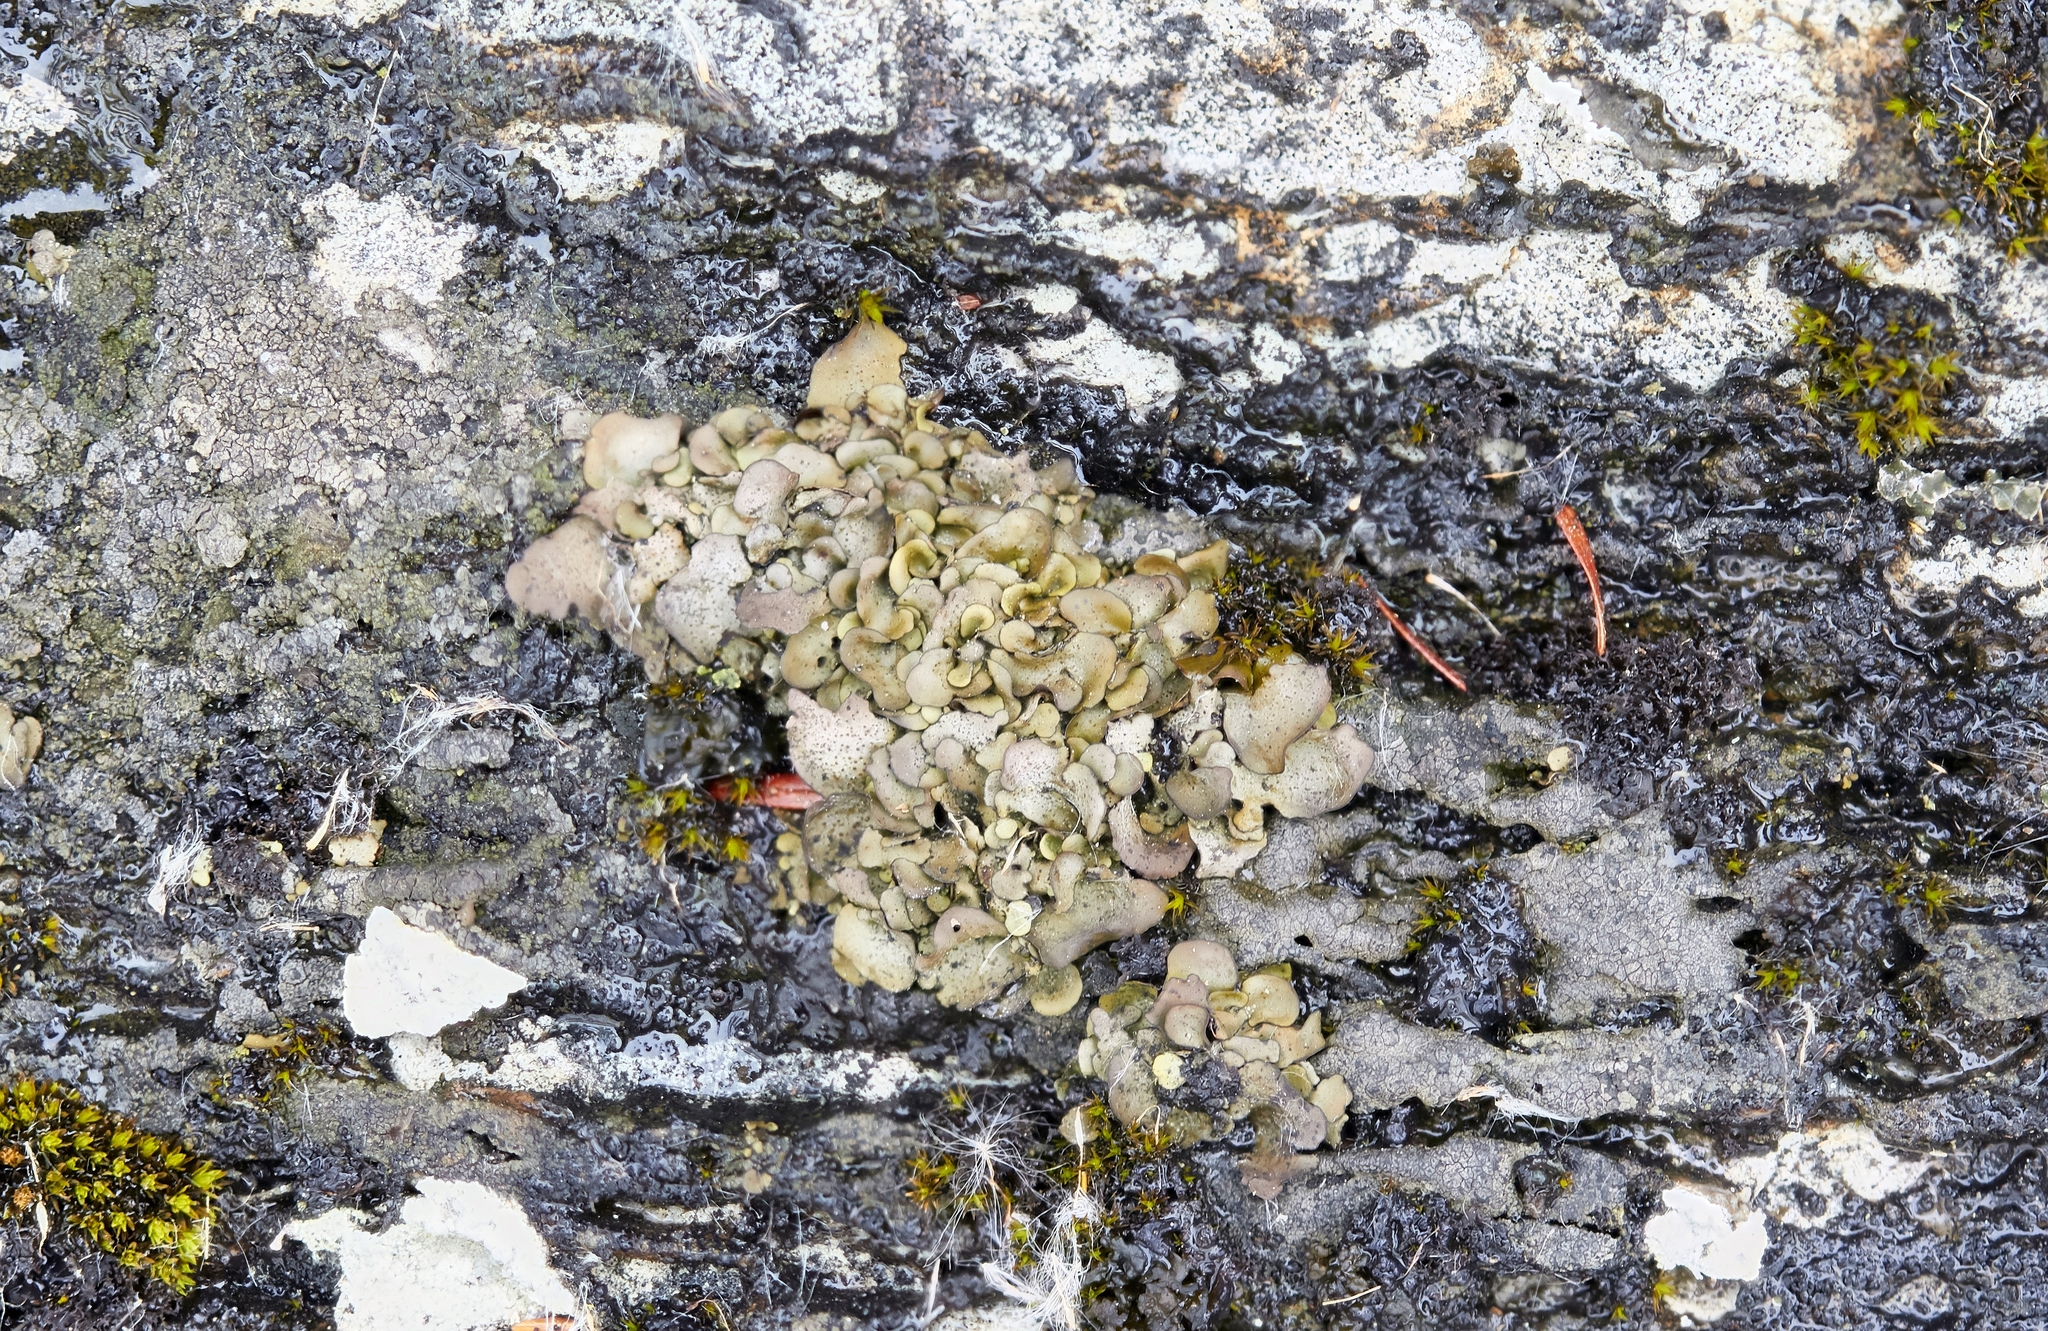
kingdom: Fungi
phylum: Ascomycota
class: Eurotiomycetes
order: Verrucariales
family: Verrucariaceae
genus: Dermatocarpon
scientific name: Dermatocarpon miniatum
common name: Leather lichen
